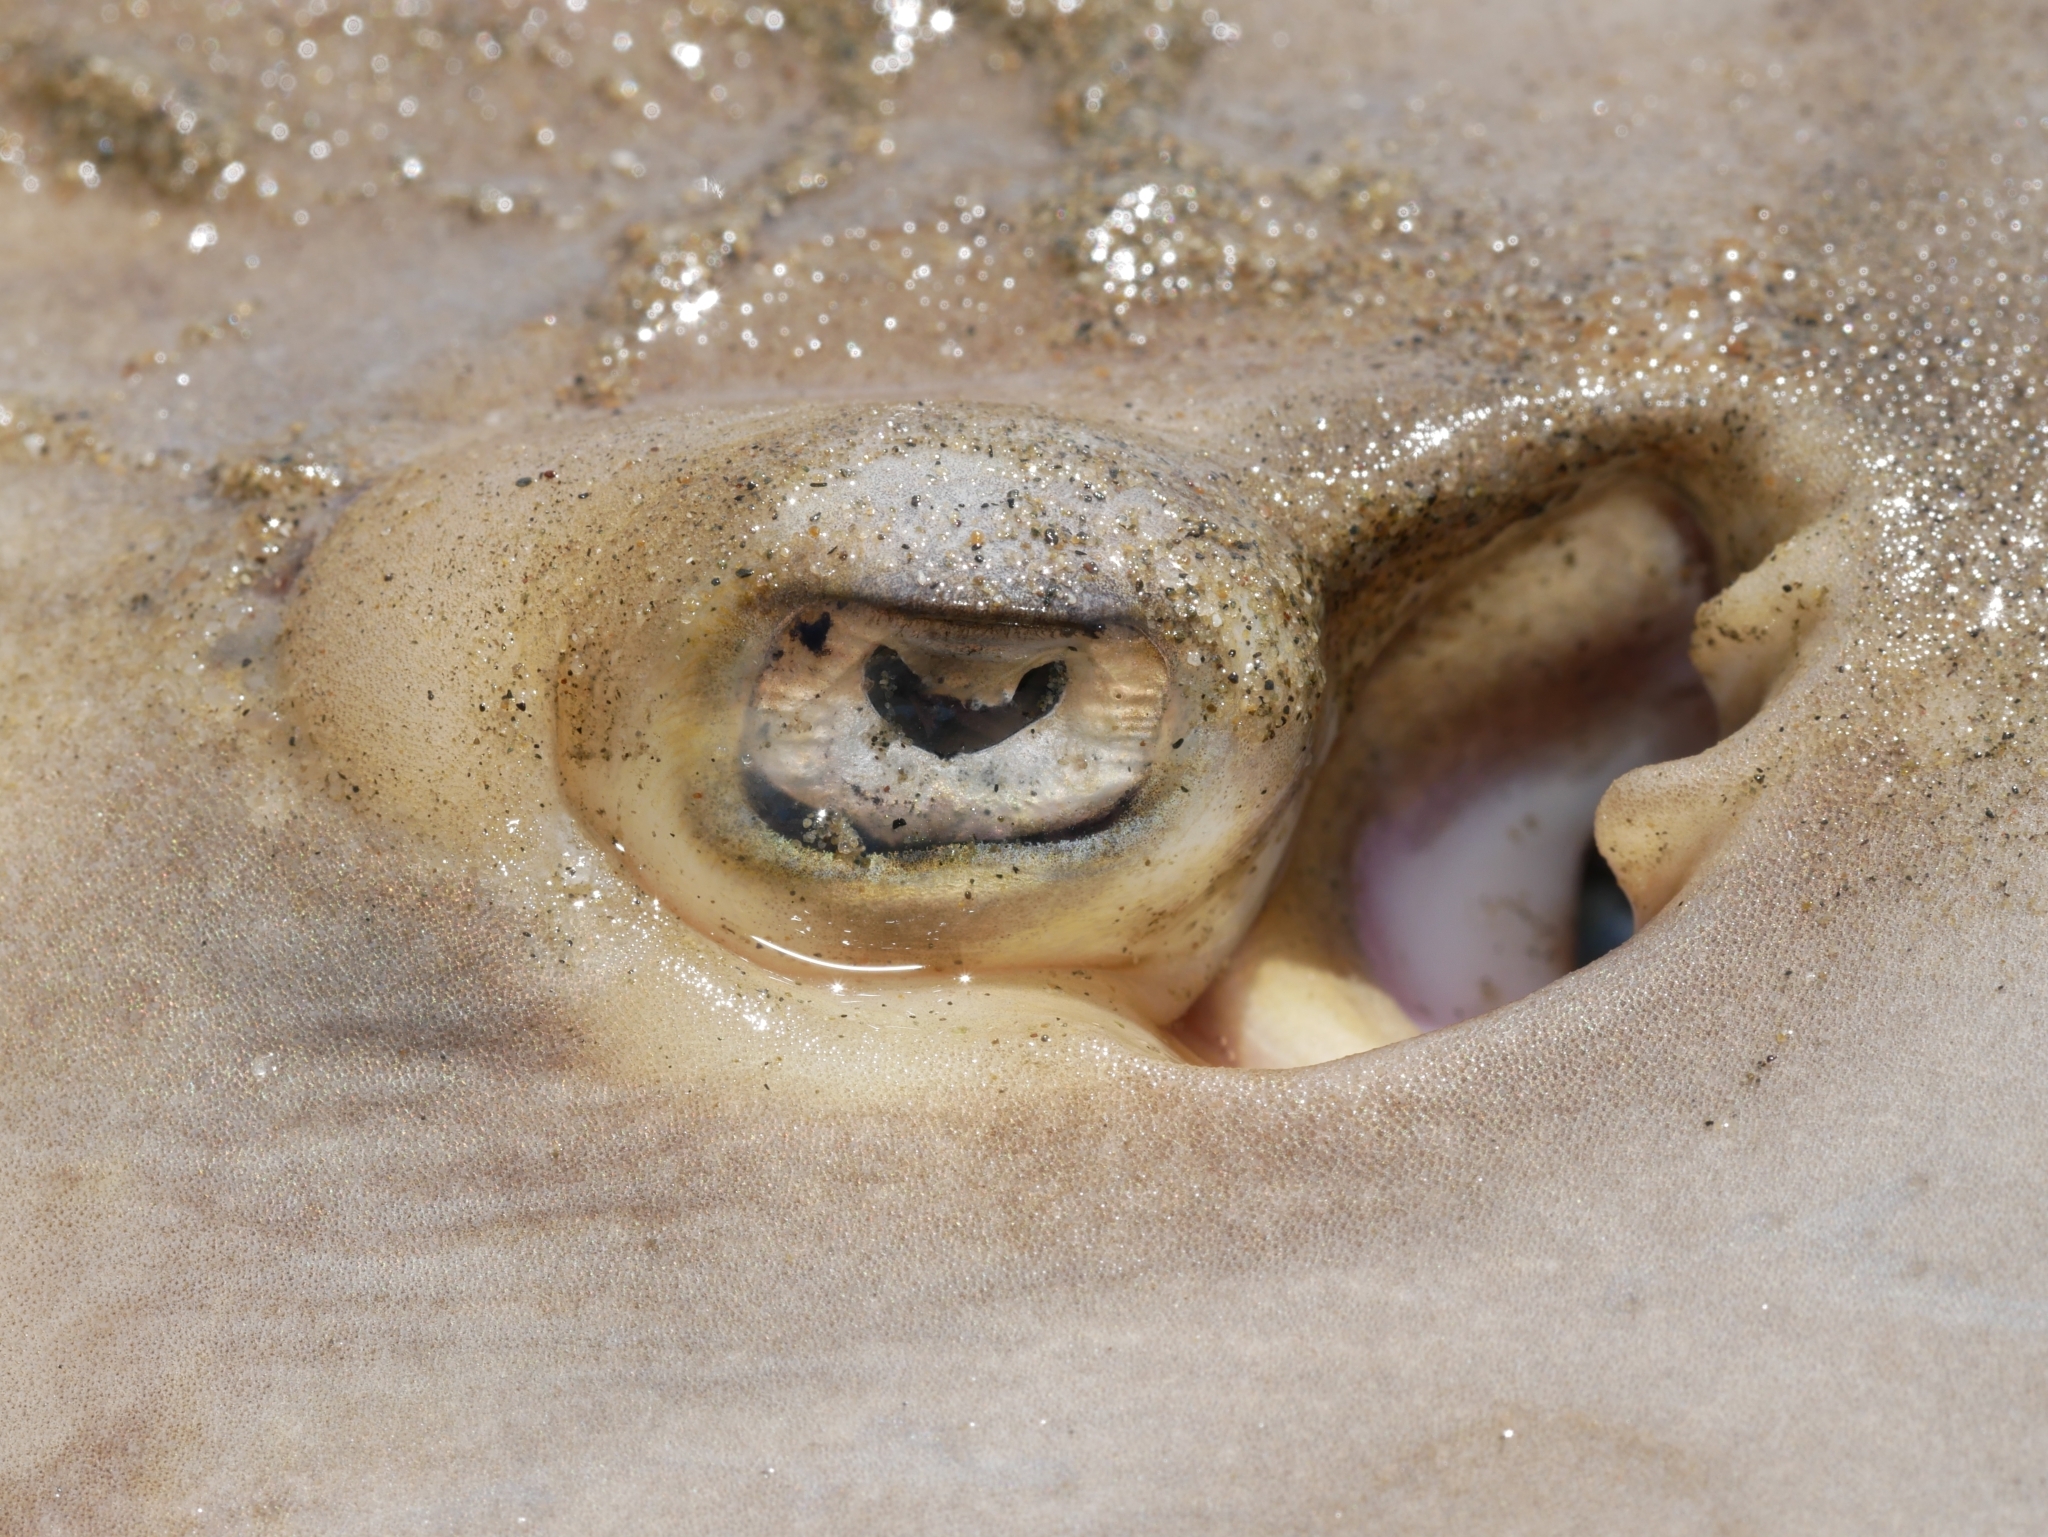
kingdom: Animalia
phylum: Chordata
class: Elasmobranchii
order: Rhinopristiformes
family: Rhinobatidae
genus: Pseudobatos
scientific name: Pseudobatos productus
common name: Shovelnose guitarfish
